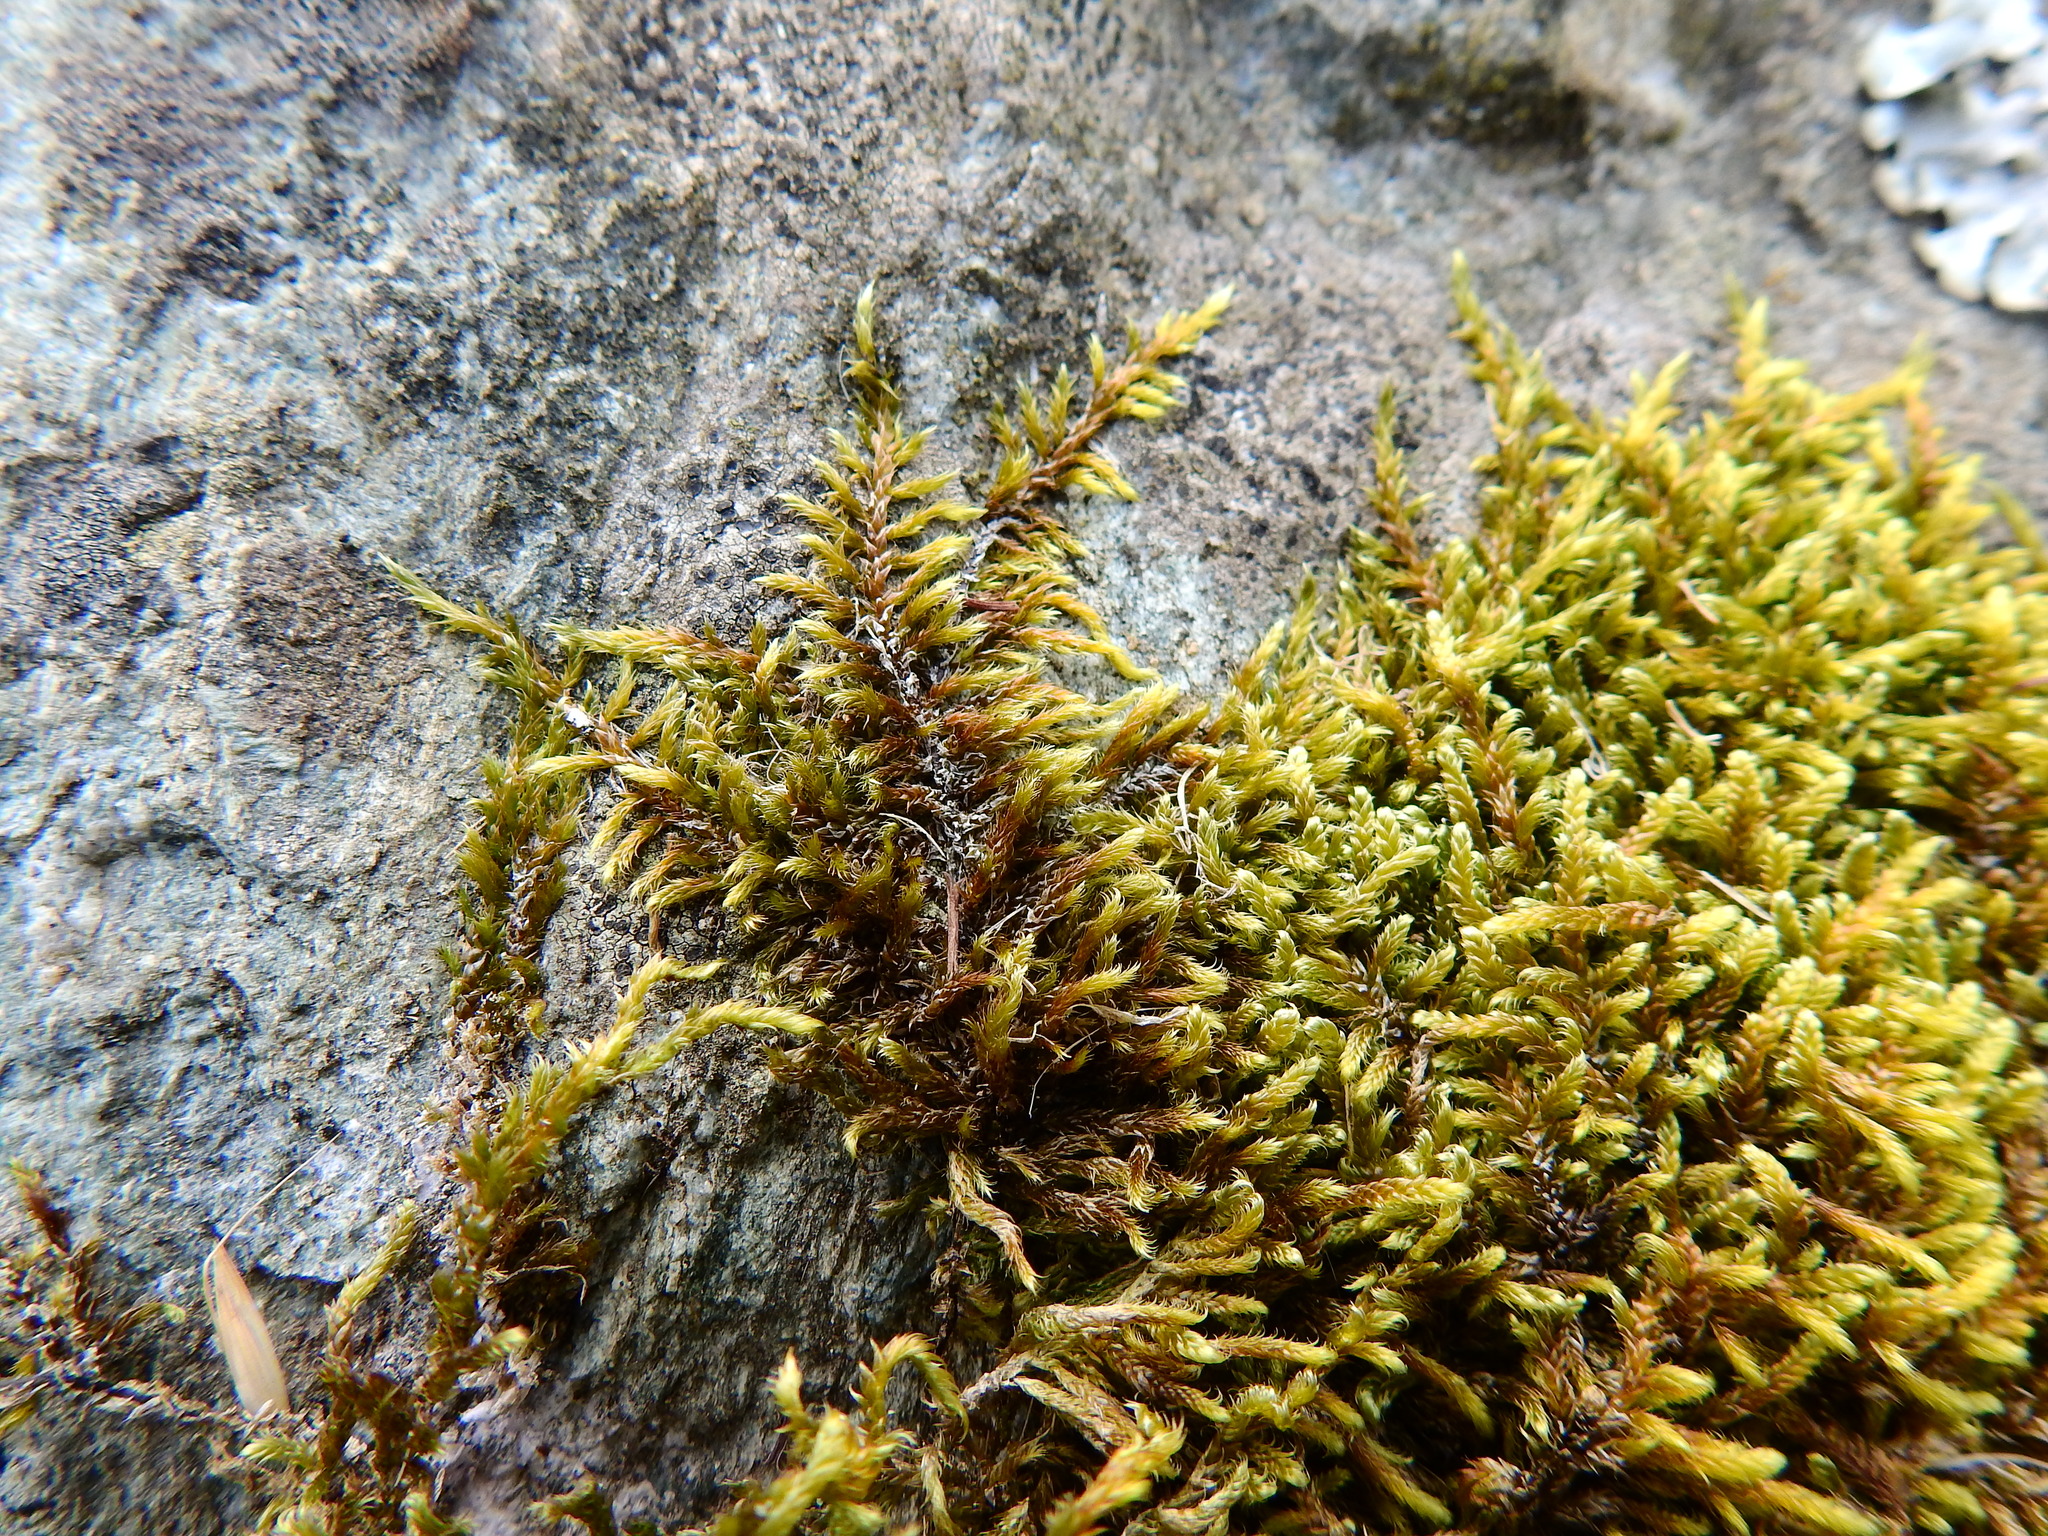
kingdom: Plantae
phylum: Bryophyta
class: Bryopsida
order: Hypnales
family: Hypnaceae
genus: Hypnum
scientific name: Hypnum cupressiforme
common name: Cypress-leaved plait-moss
